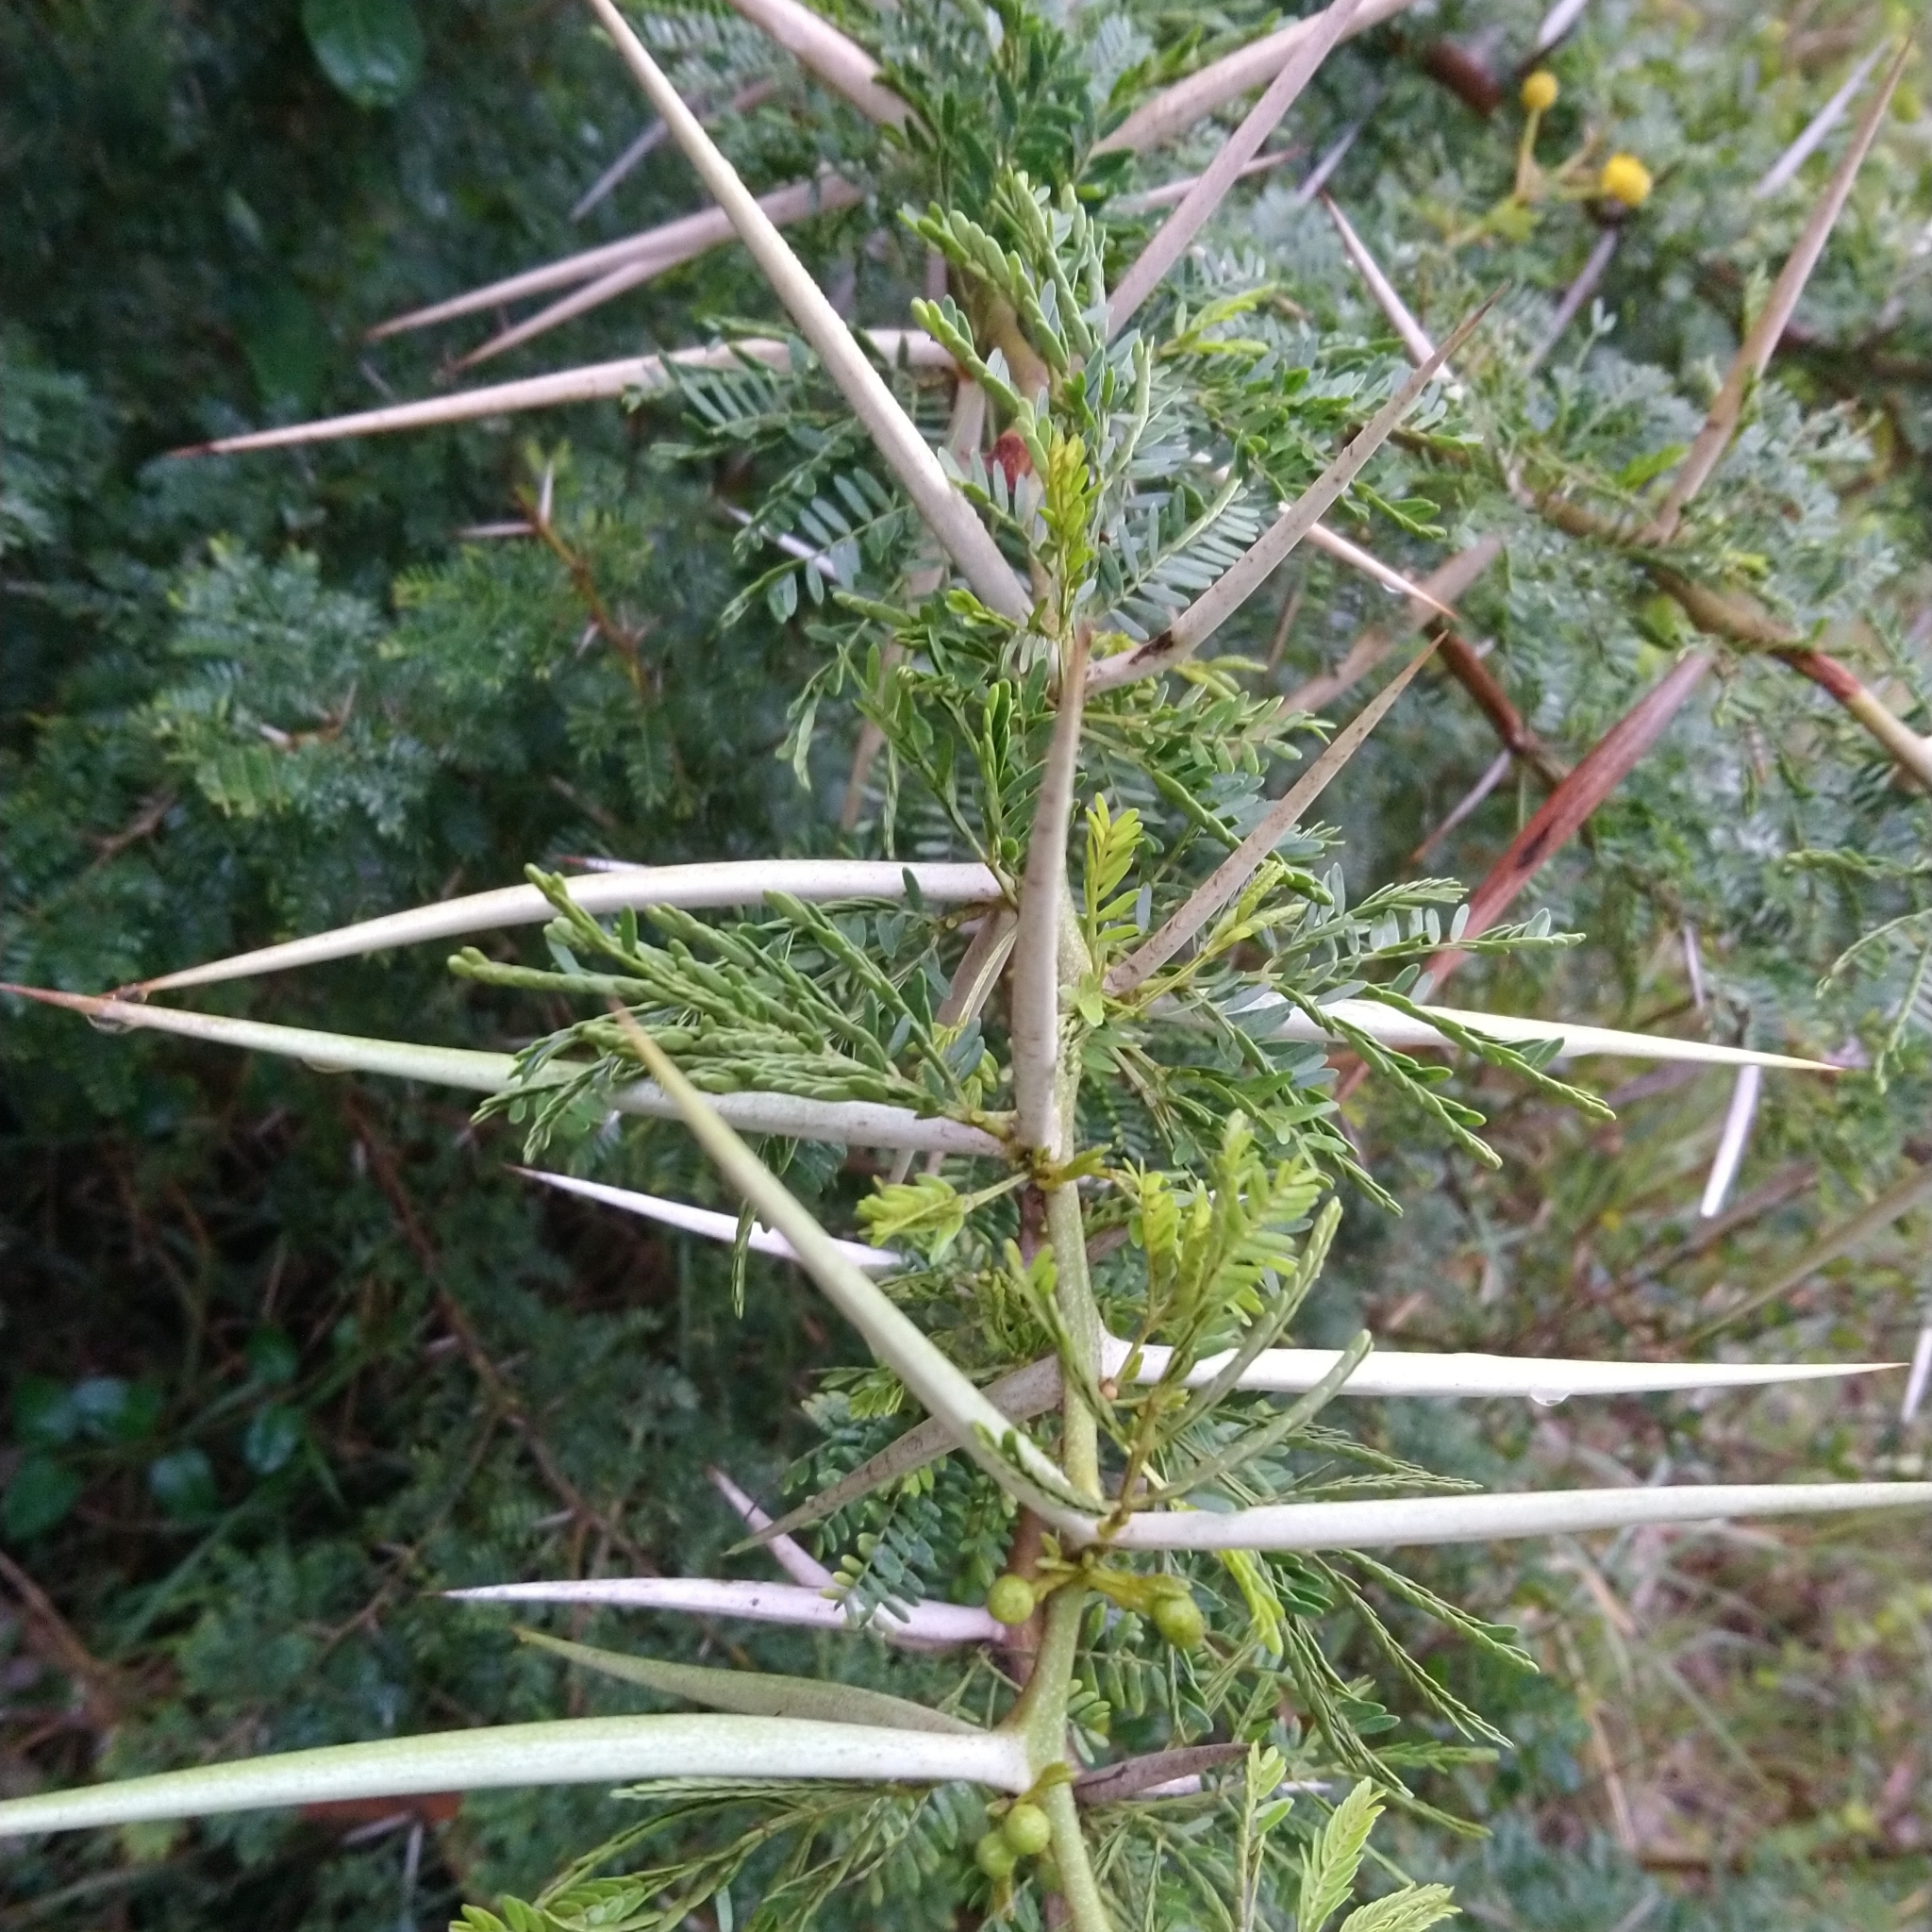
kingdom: Plantae
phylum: Tracheophyta
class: Magnoliopsida
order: Fabales
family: Fabaceae
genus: Vachellia
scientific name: Vachellia karroo
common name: Sweet thorn
